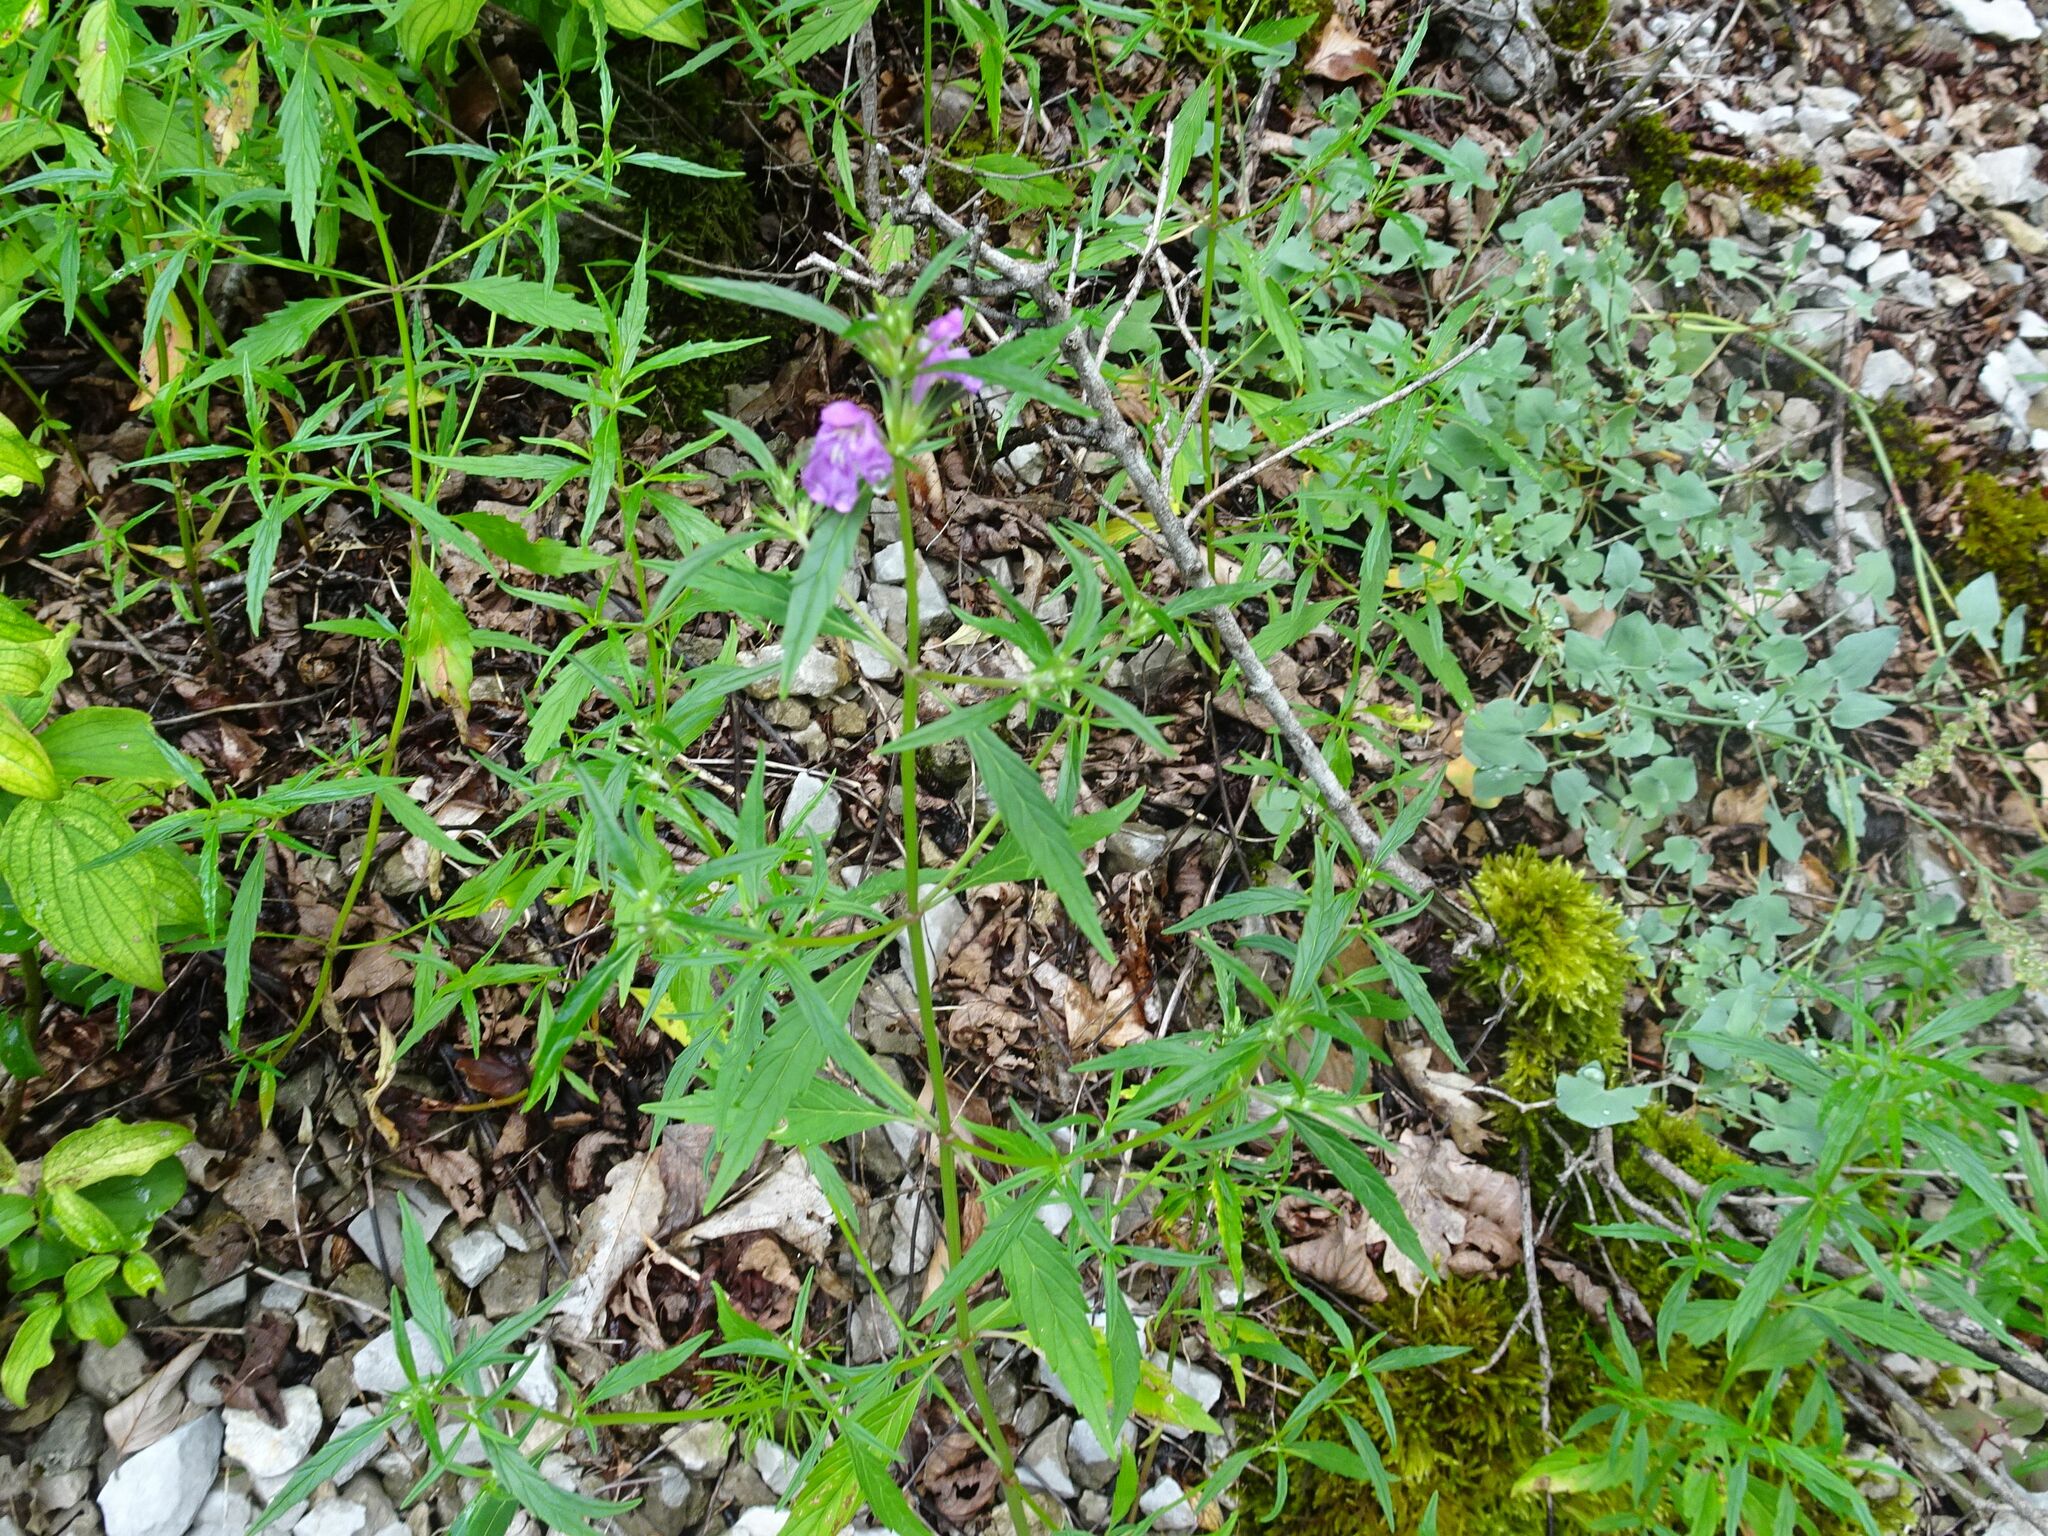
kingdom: Plantae
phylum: Tracheophyta
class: Magnoliopsida
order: Lamiales
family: Lamiaceae
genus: Galeopsis
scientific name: Galeopsis angustifolia
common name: Red hemp-nettle
